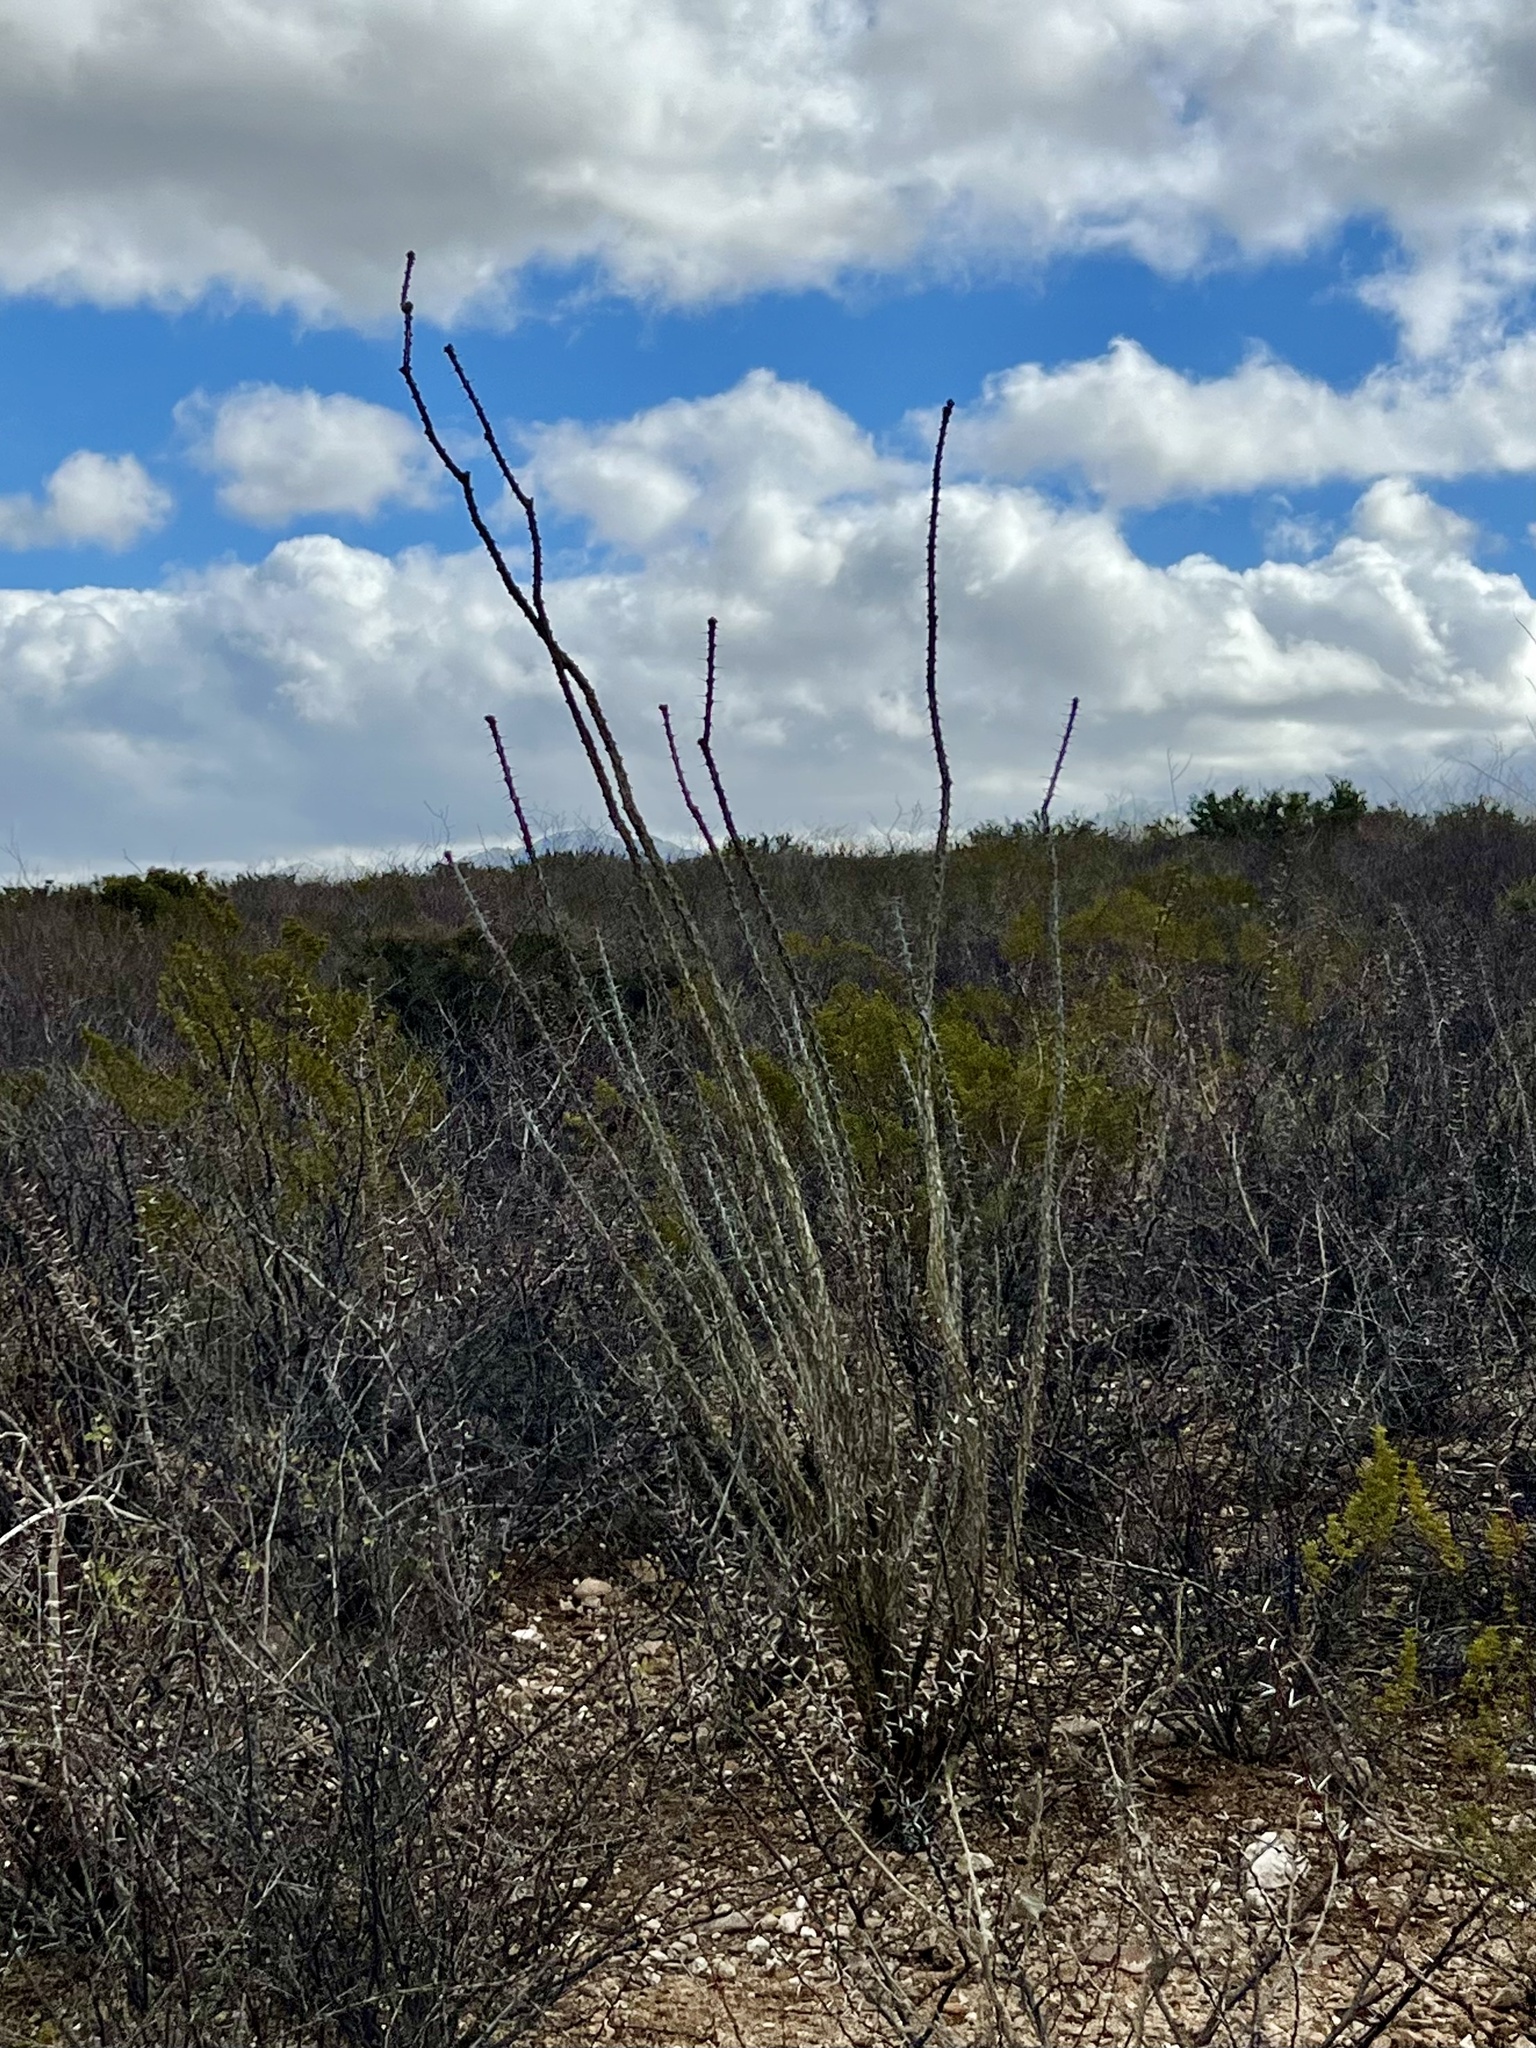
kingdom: Plantae
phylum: Tracheophyta
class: Magnoliopsida
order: Ericales
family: Fouquieriaceae
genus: Fouquieria
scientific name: Fouquieria splendens
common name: Vine-cactus
